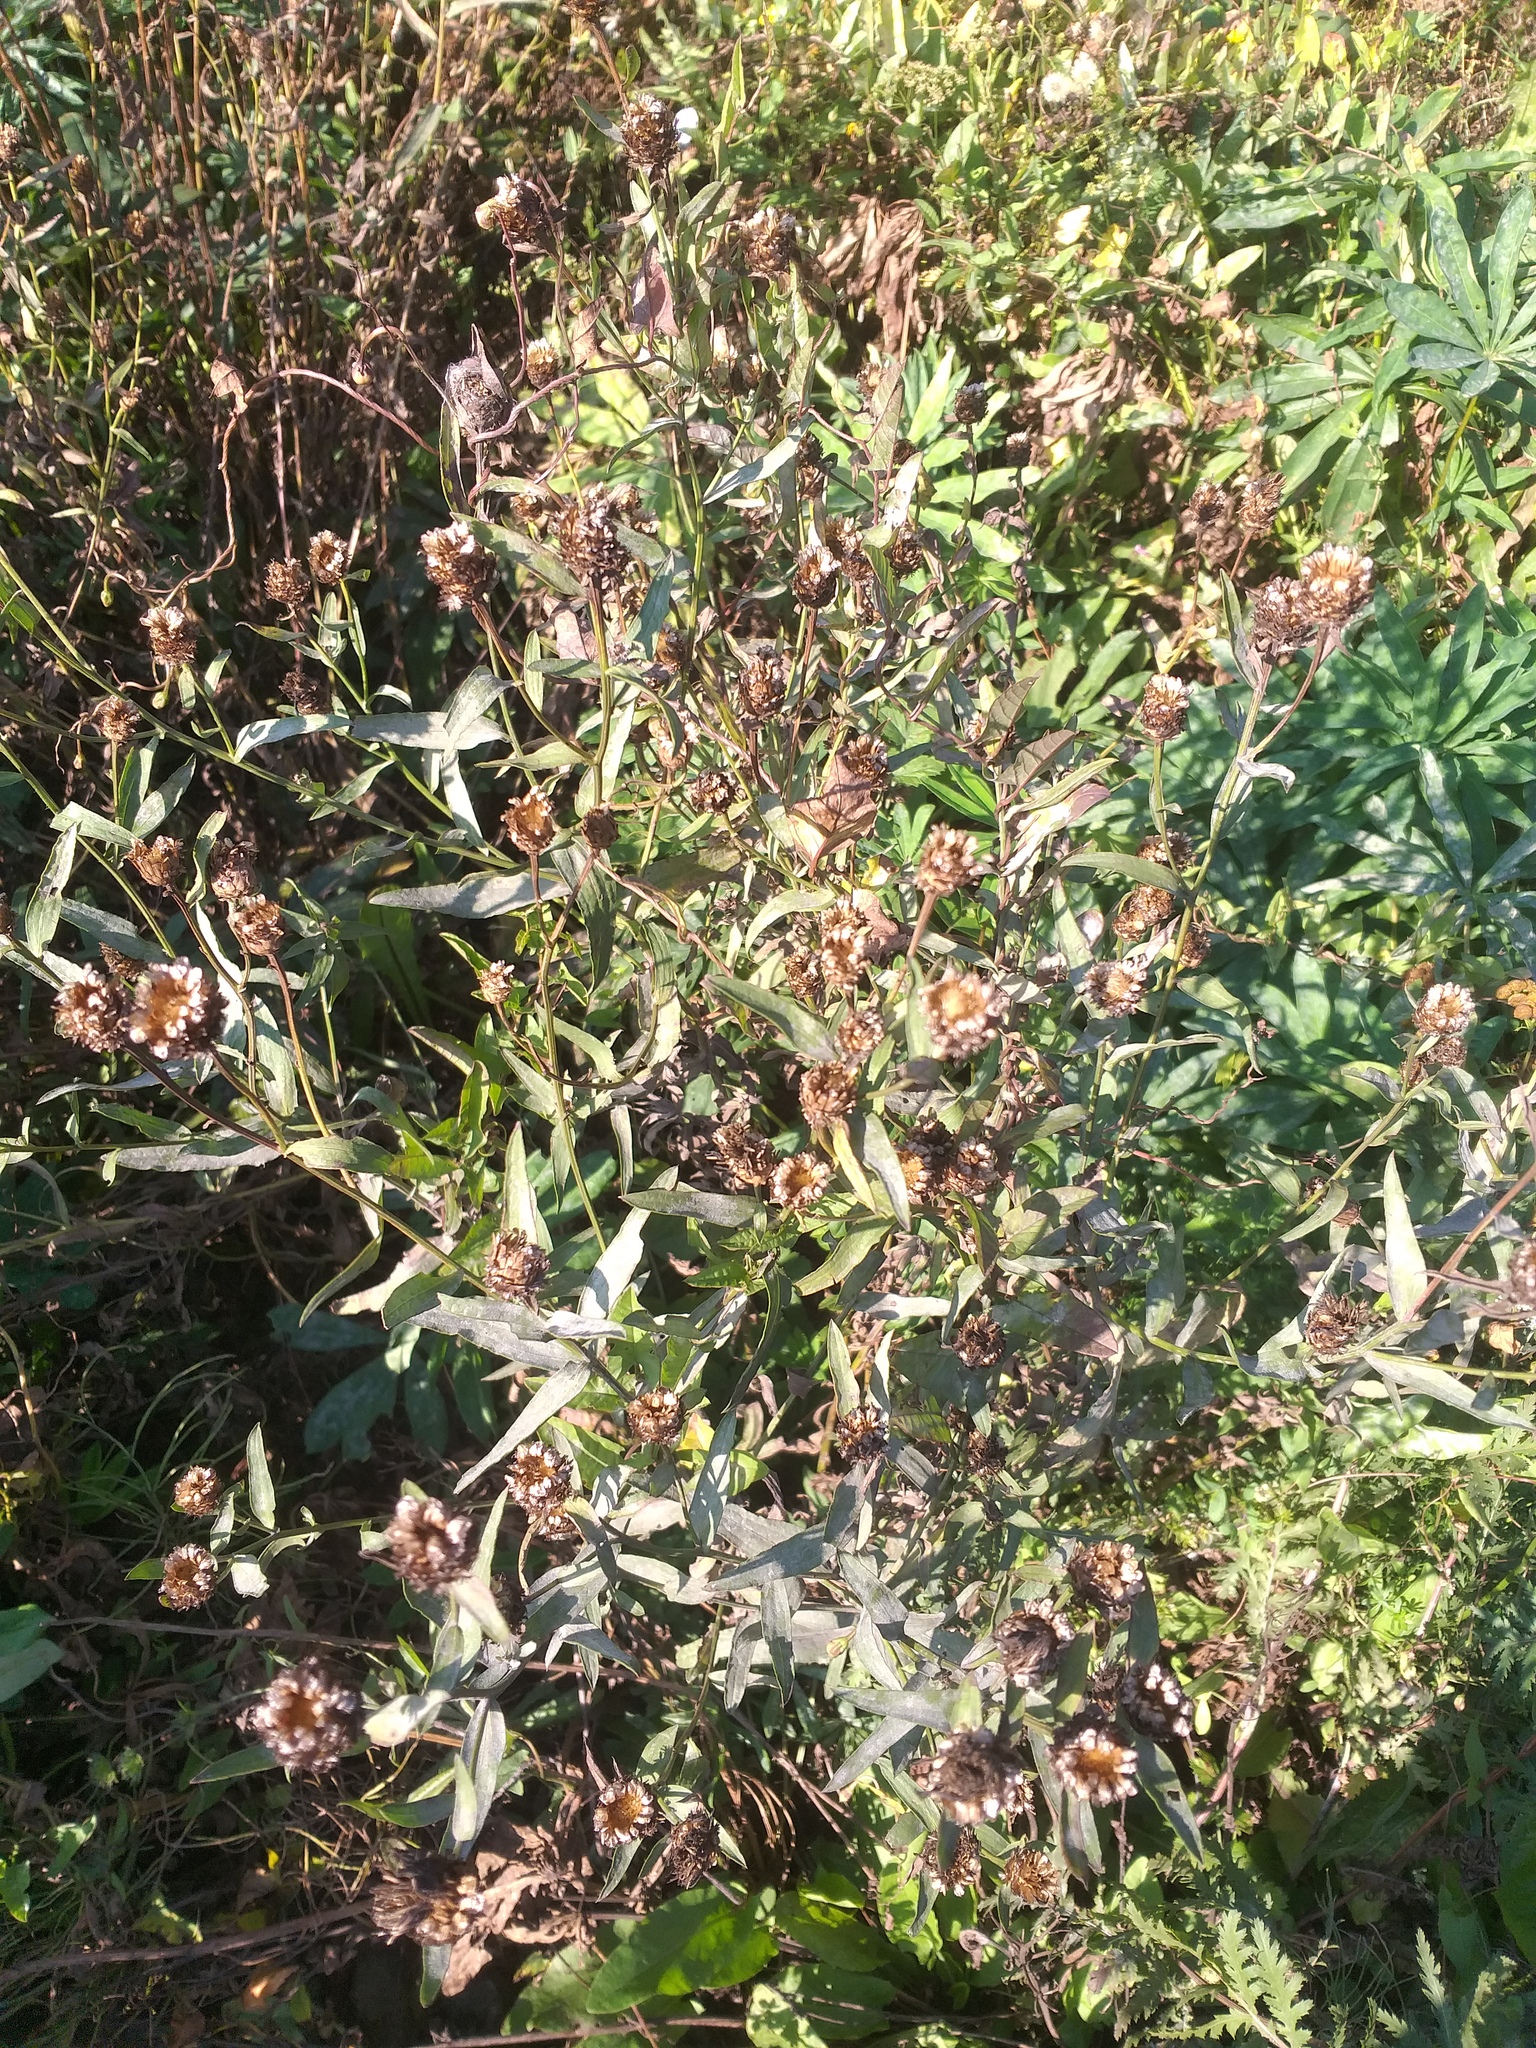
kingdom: Plantae
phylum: Tracheophyta
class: Magnoliopsida
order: Asterales
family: Asteraceae
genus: Centaurea
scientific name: Centaurea jacea
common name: Brown knapweed
